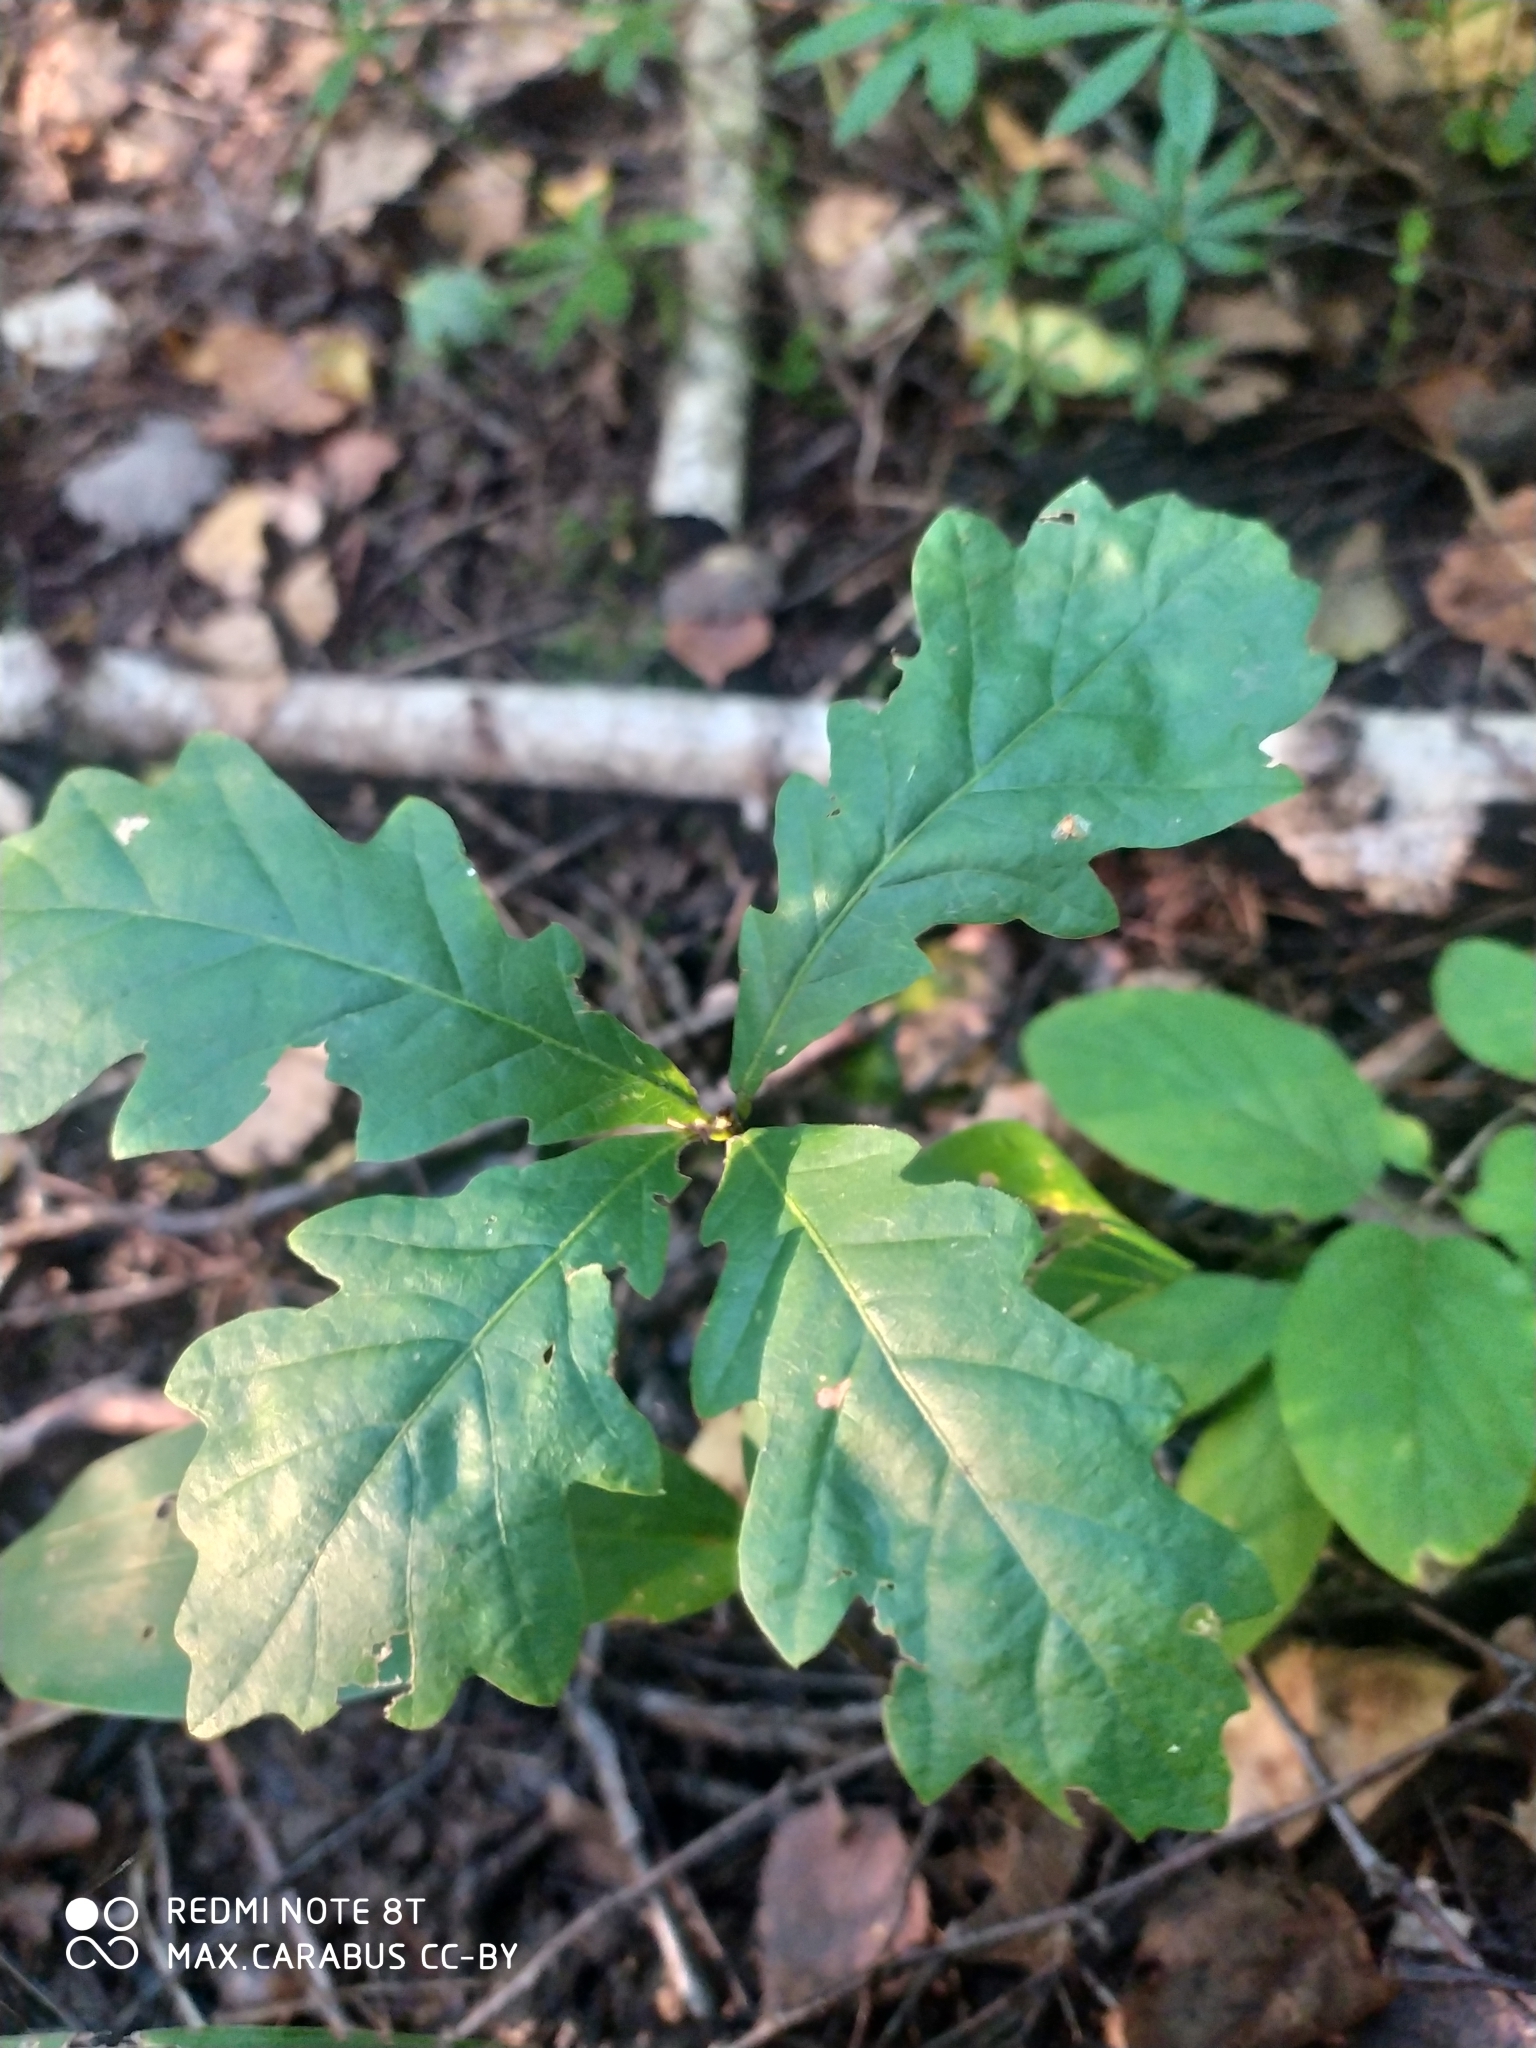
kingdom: Plantae
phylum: Tracheophyta
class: Magnoliopsida
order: Fagales
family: Fagaceae
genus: Quercus
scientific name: Quercus robur
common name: Pedunculate oak
